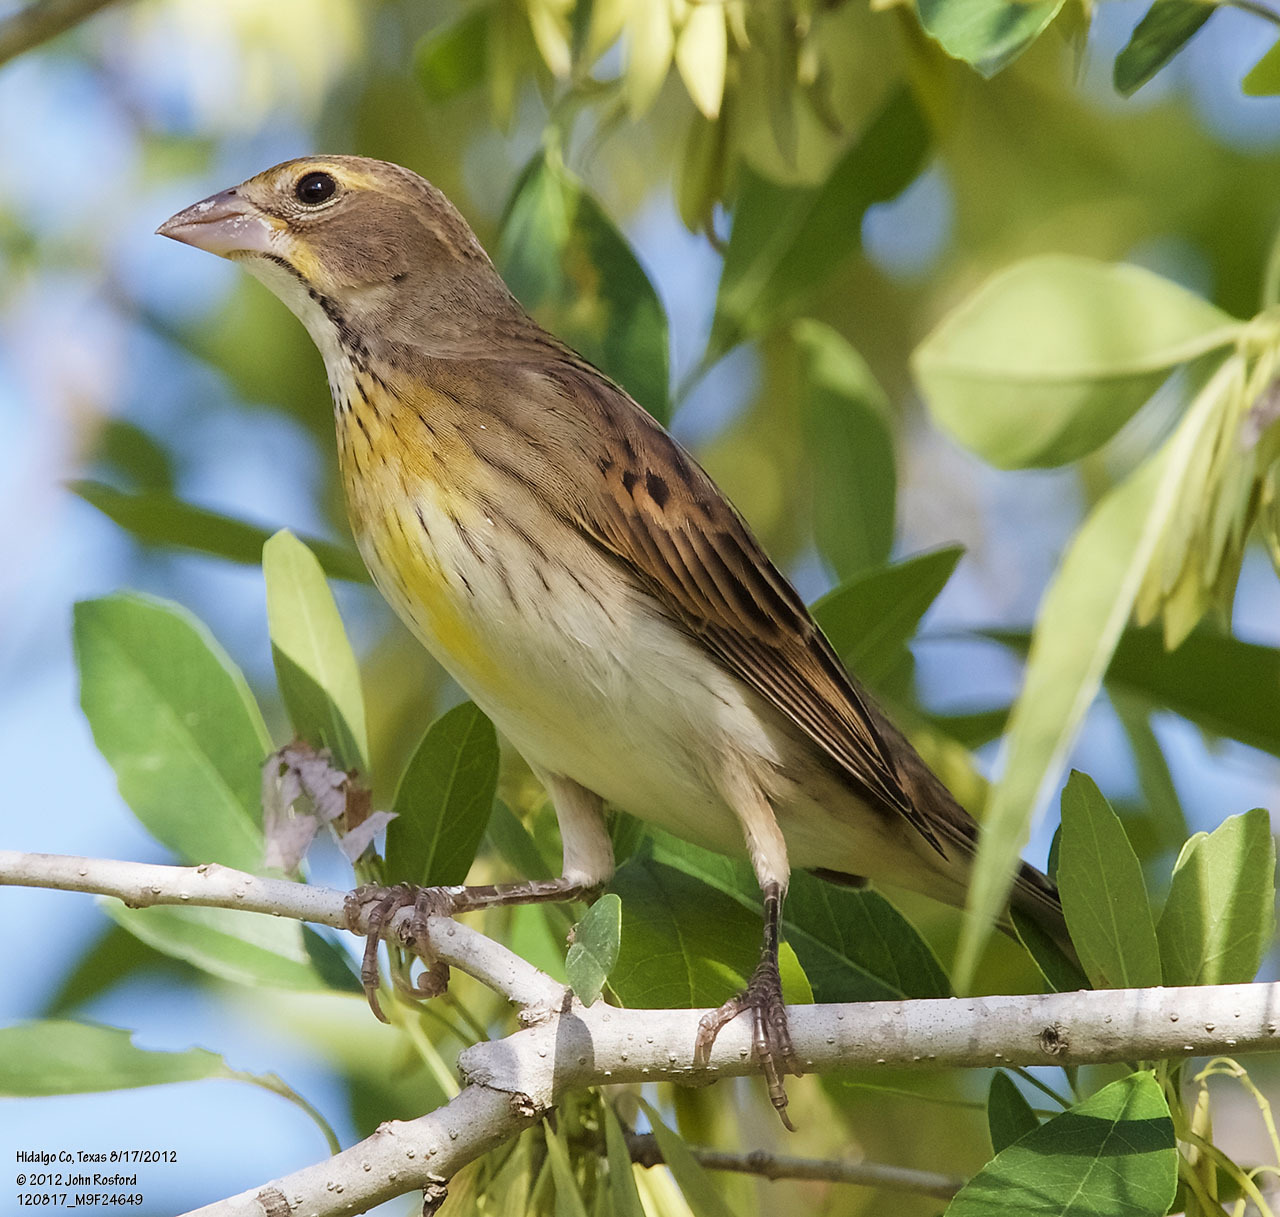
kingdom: Animalia
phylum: Chordata
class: Aves
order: Passeriformes
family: Cardinalidae
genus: Spiza
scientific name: Spiza americana
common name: Dickcissel
